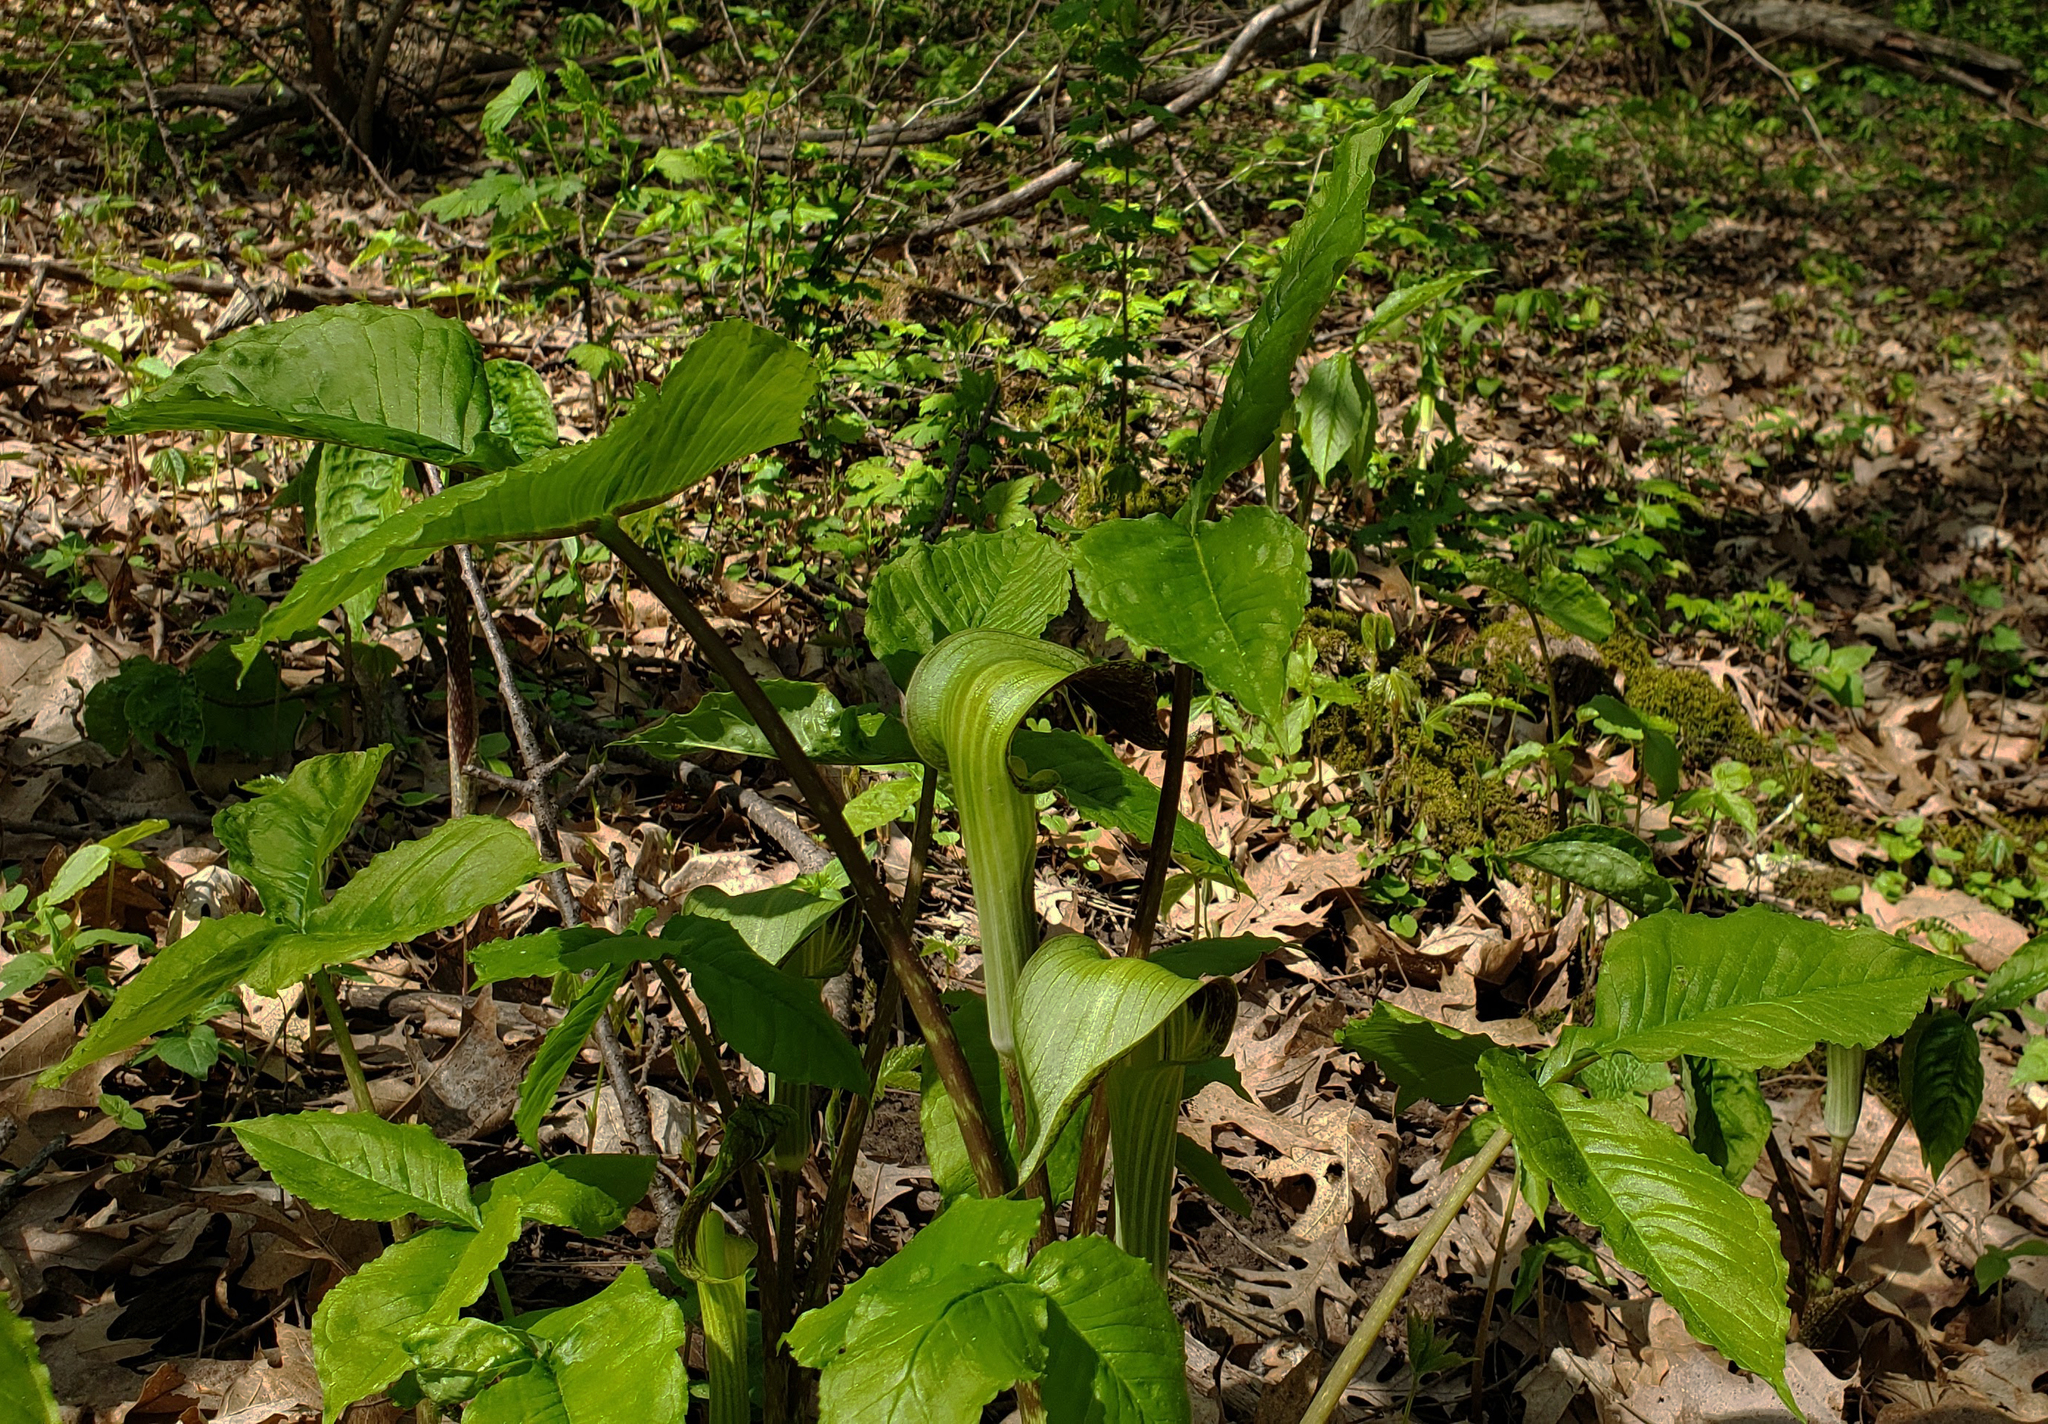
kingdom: Plantae
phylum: Tracheophyta
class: Liliopsida
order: Alismatales
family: Araceae
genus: Arisaema
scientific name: Arisaema triphyllum
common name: Jack-in-the-pulpit
